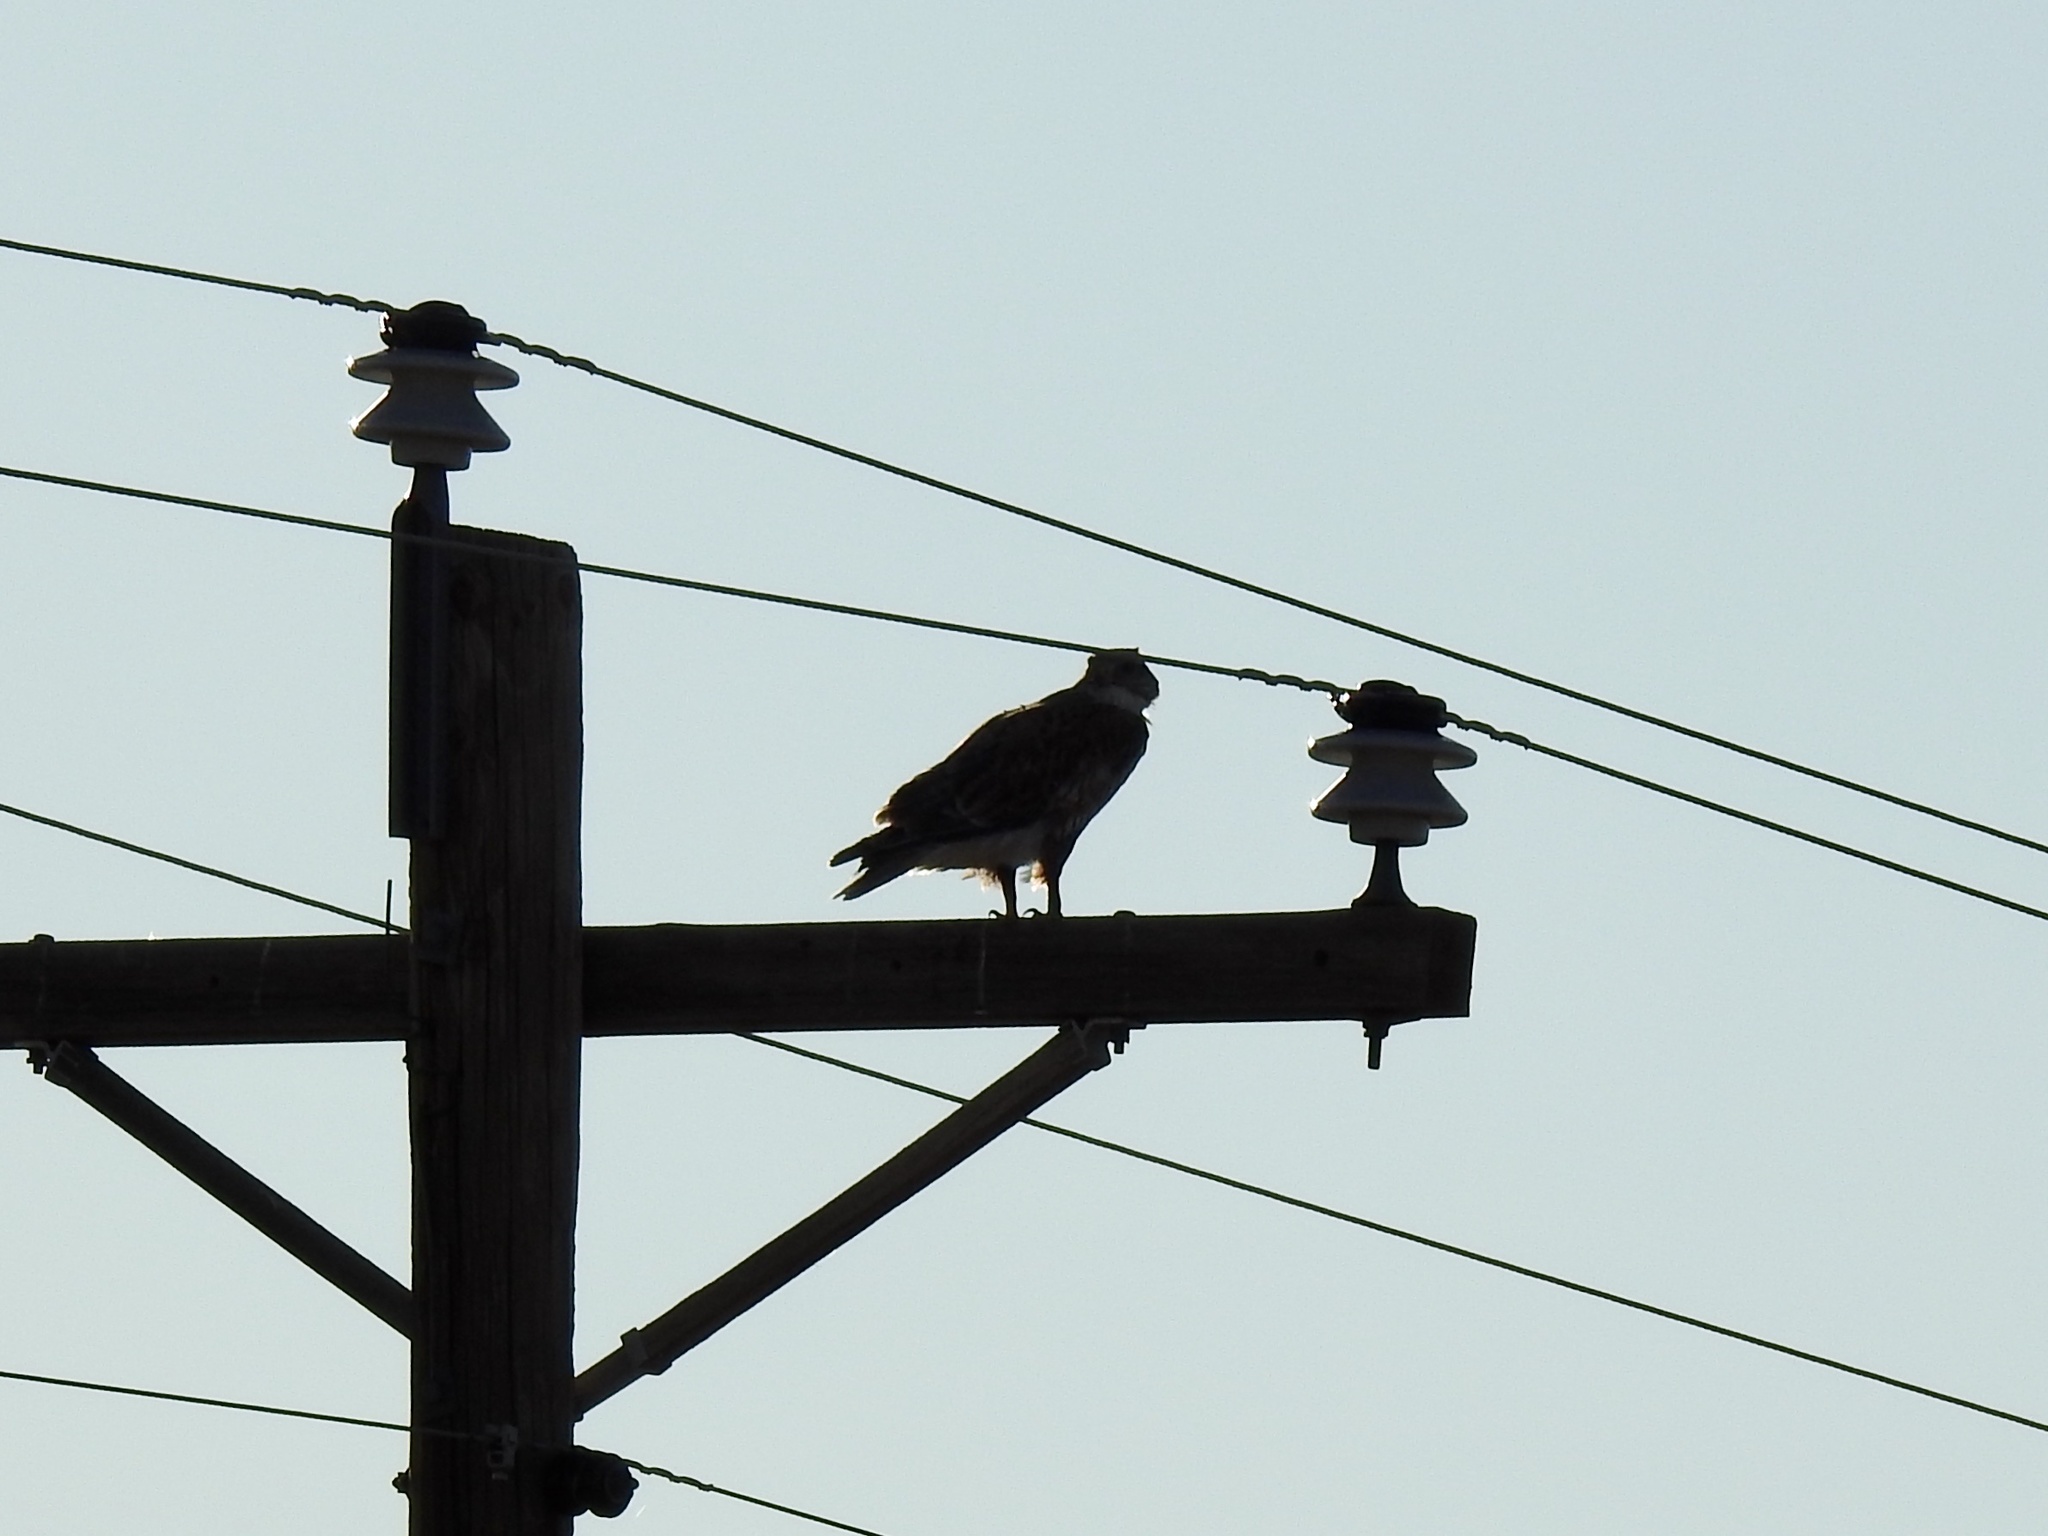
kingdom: Animalia
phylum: Chordata
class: Aves
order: Accipitriformes
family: Accipitridae
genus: Buteo
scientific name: Buteo regalis
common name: Ferruginous hawk
